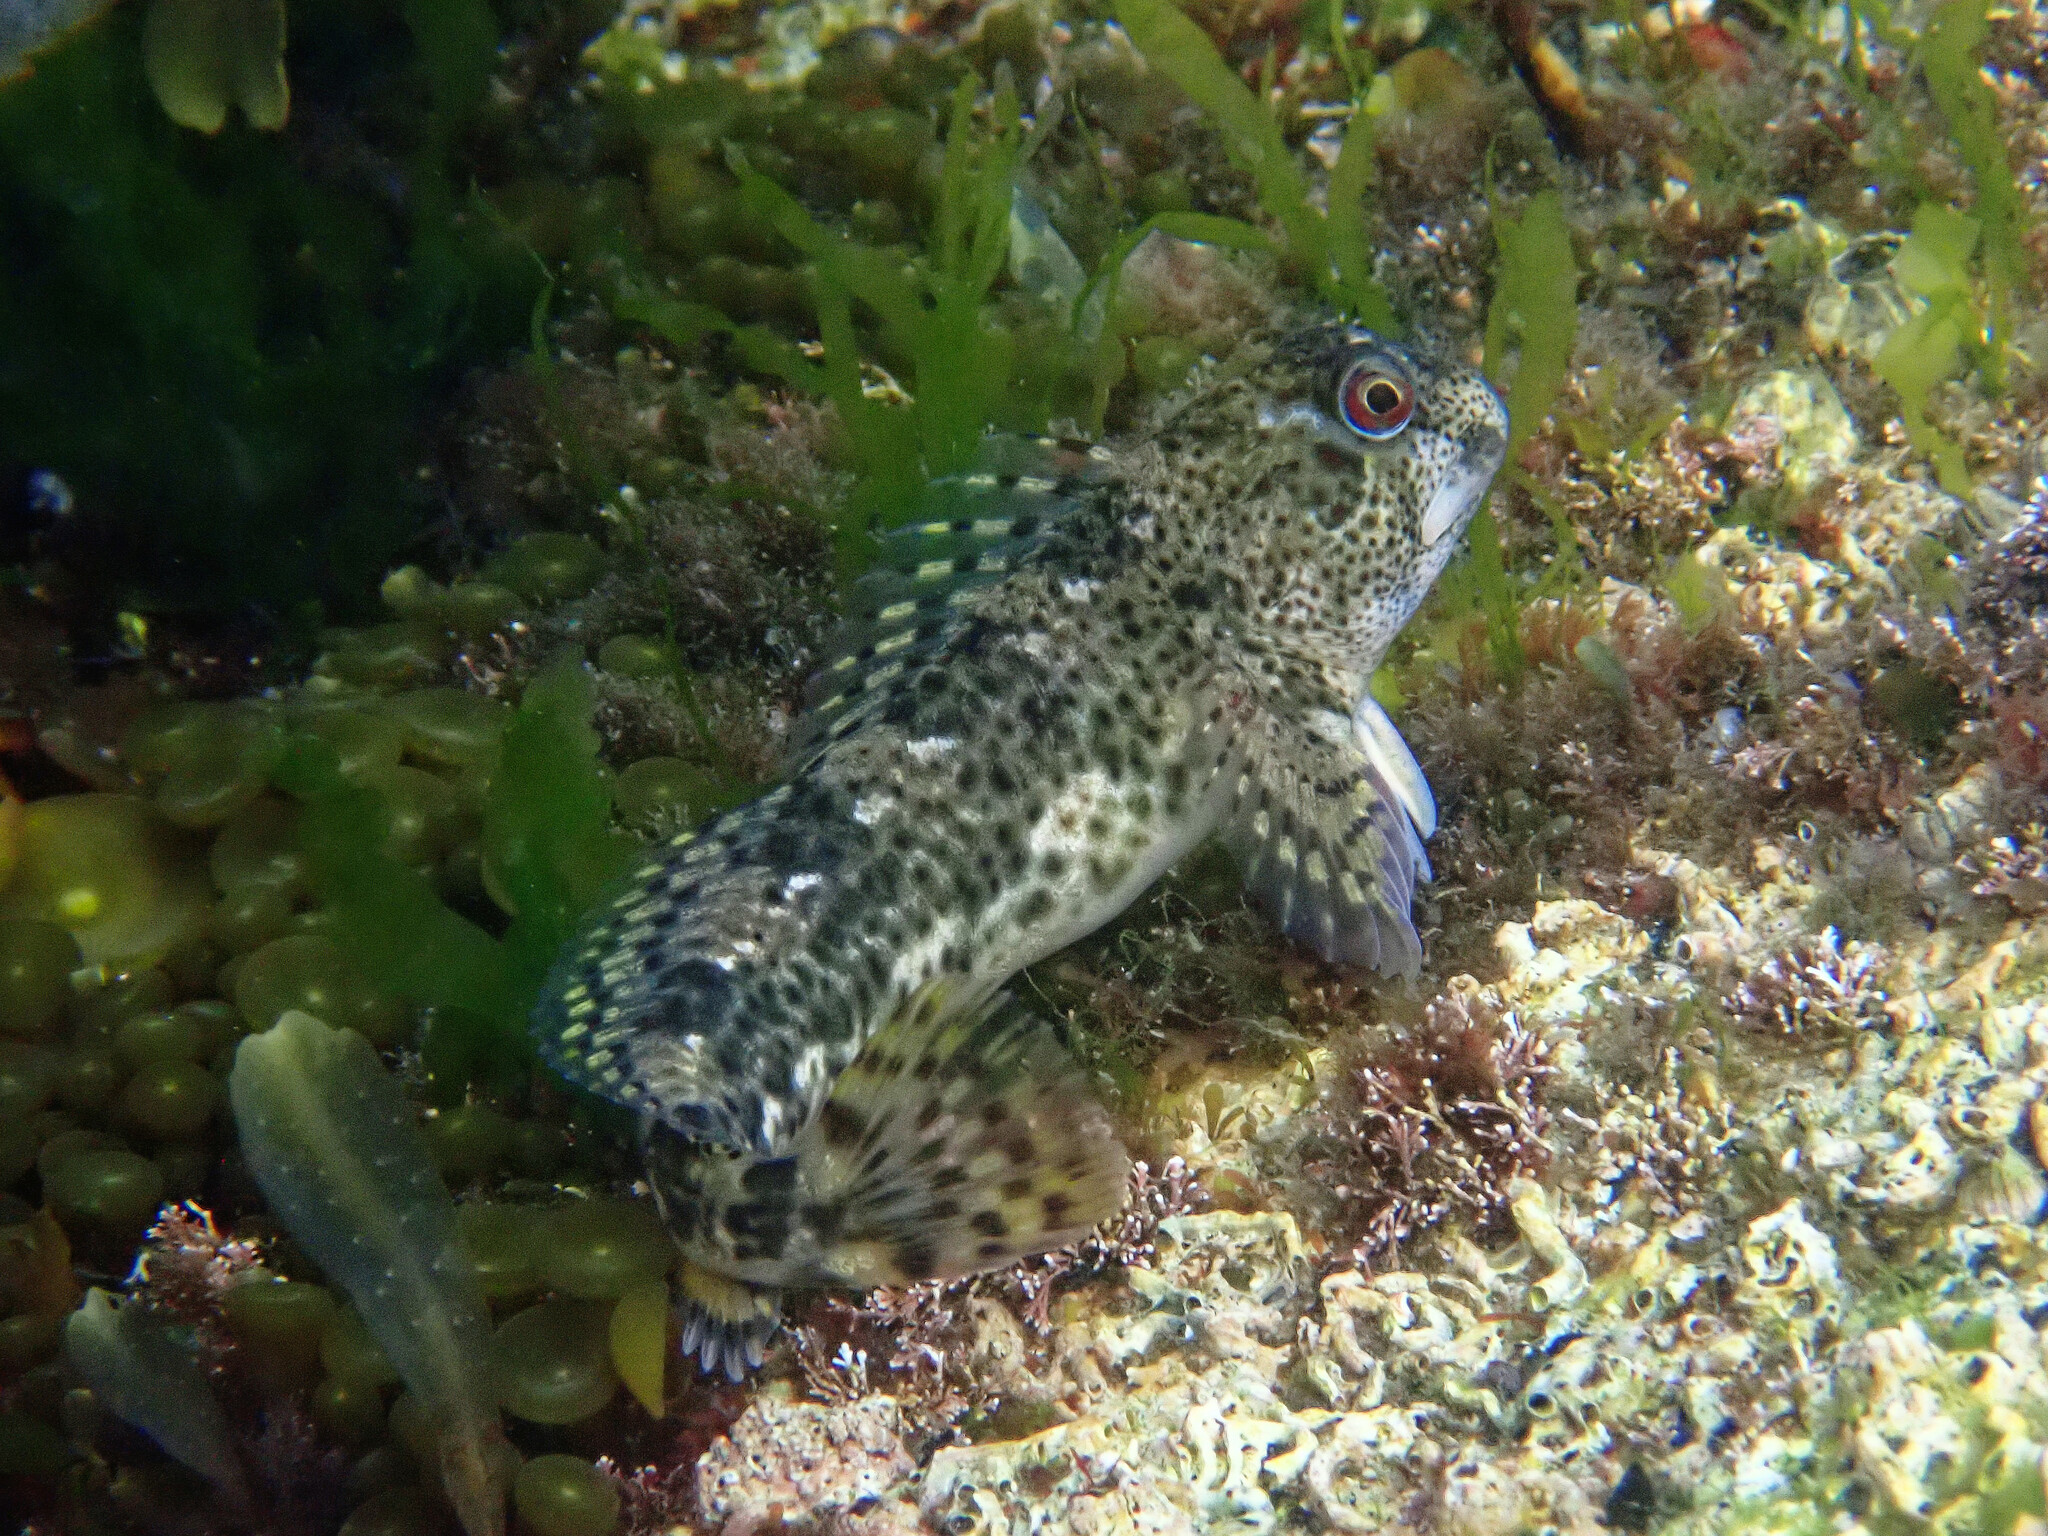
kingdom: Animalia
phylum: Chordata
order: Perciformes
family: Blenniidae
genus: Lipophrys
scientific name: Lipophrys pholis
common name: Shanny
